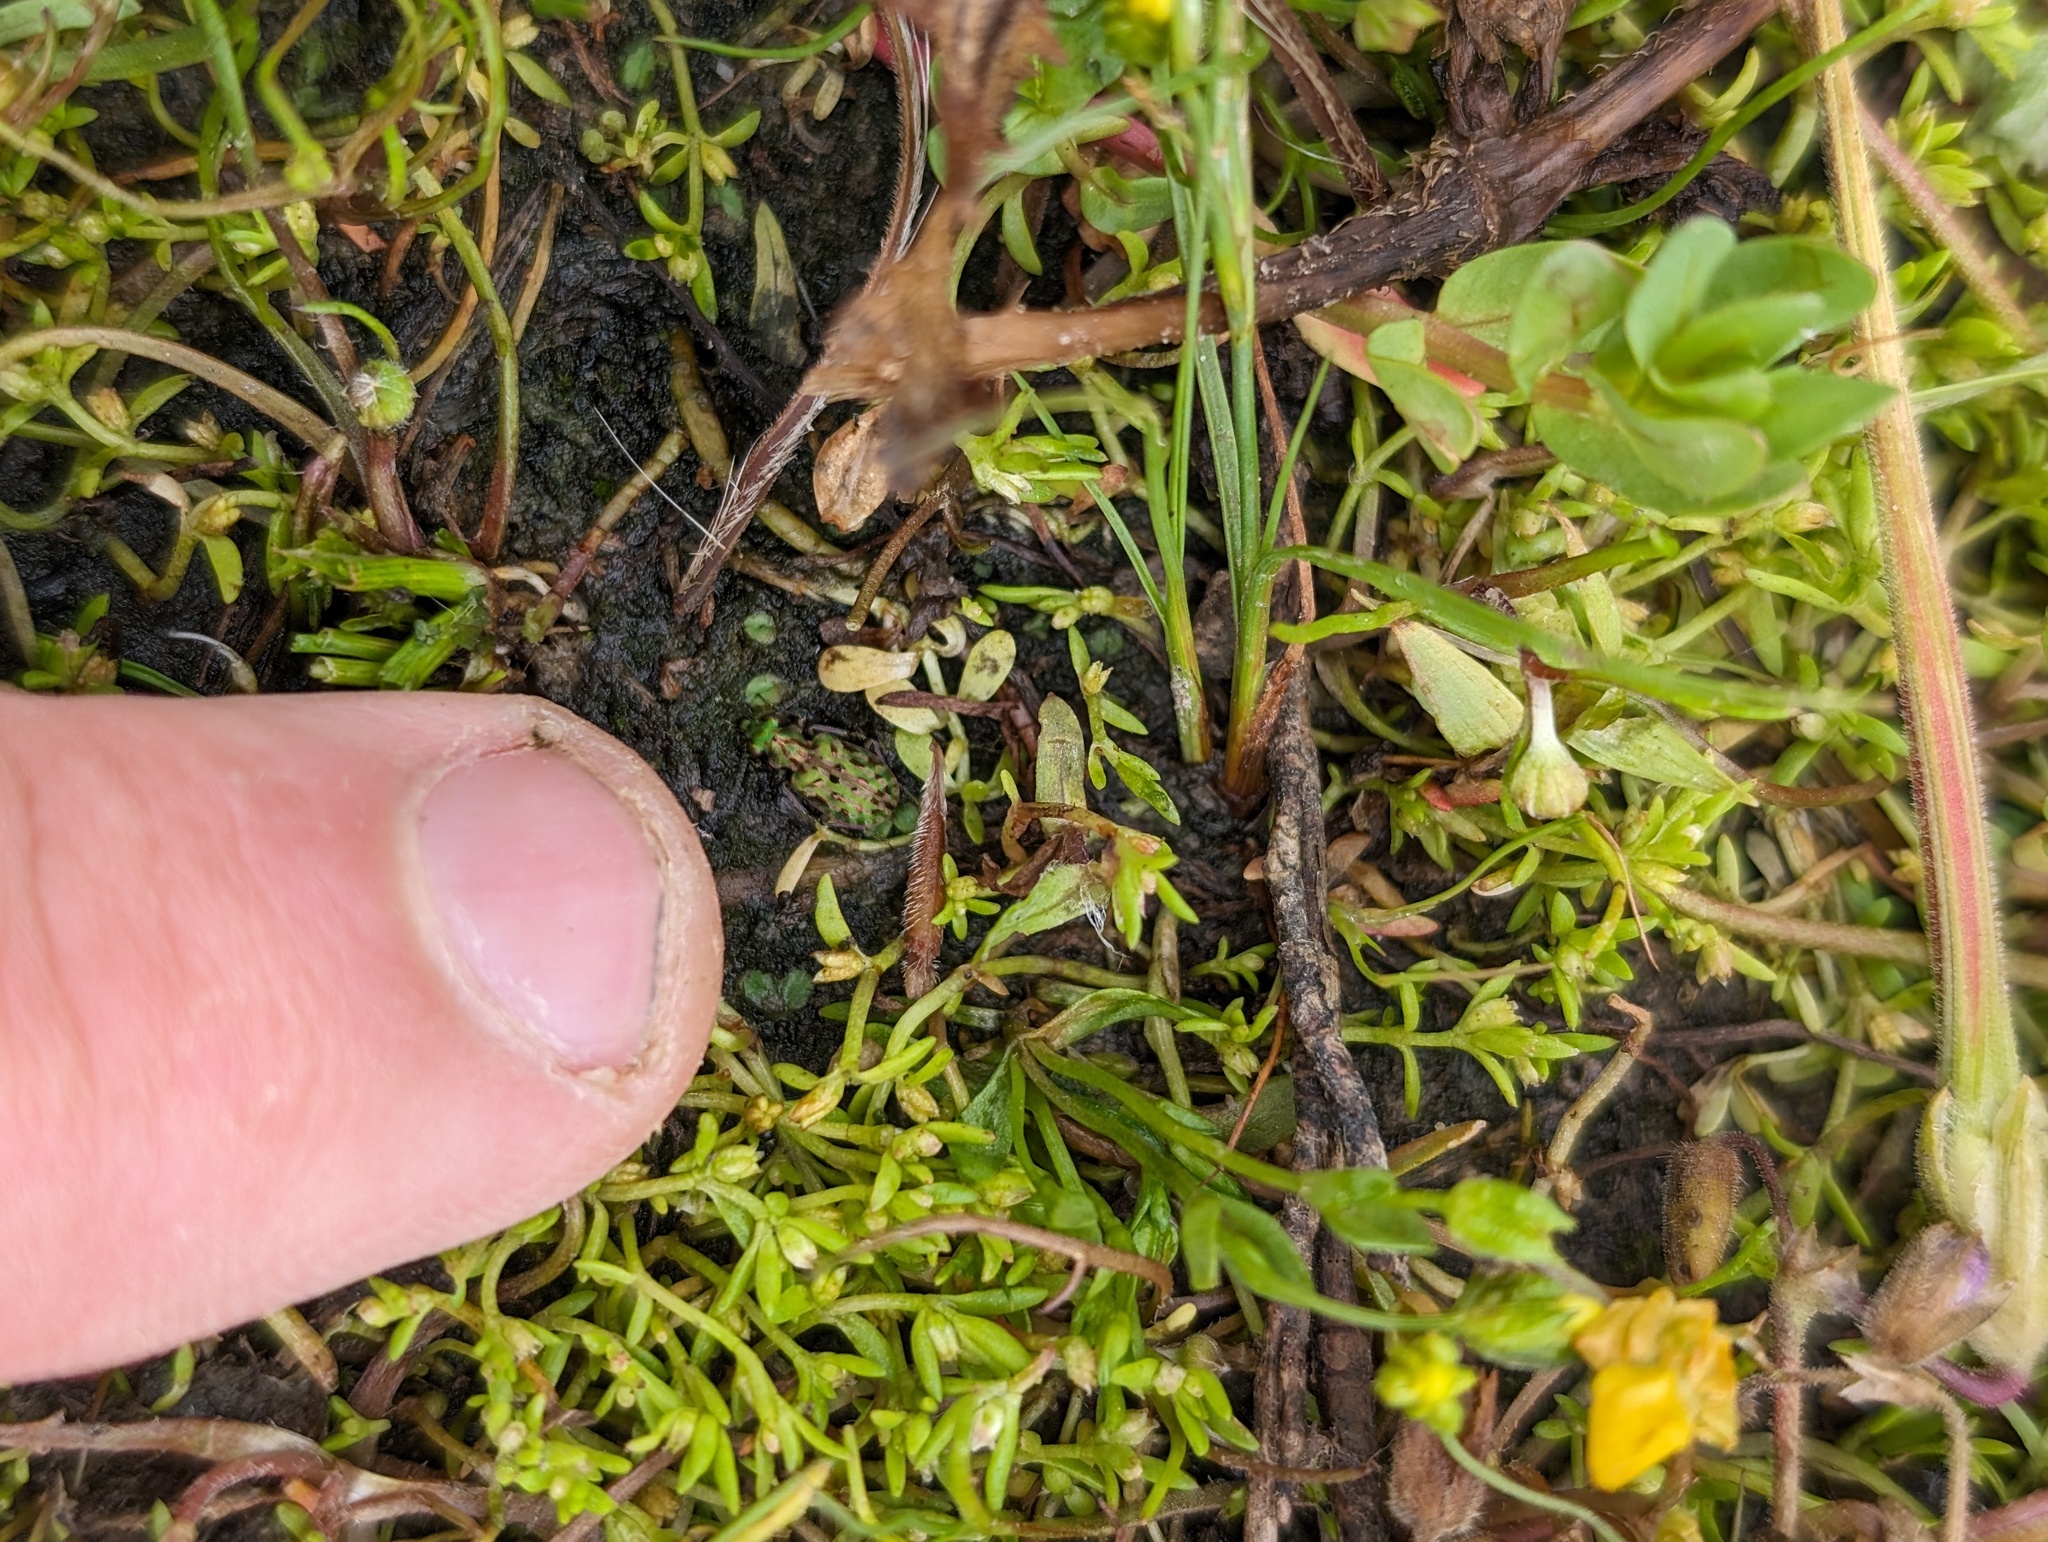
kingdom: Animalia
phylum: Arthropoda
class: Insecta
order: Coleoptera
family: Carabidae
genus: Elaphrus
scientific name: Elaphrus viridis
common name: Delta green ground beetle
